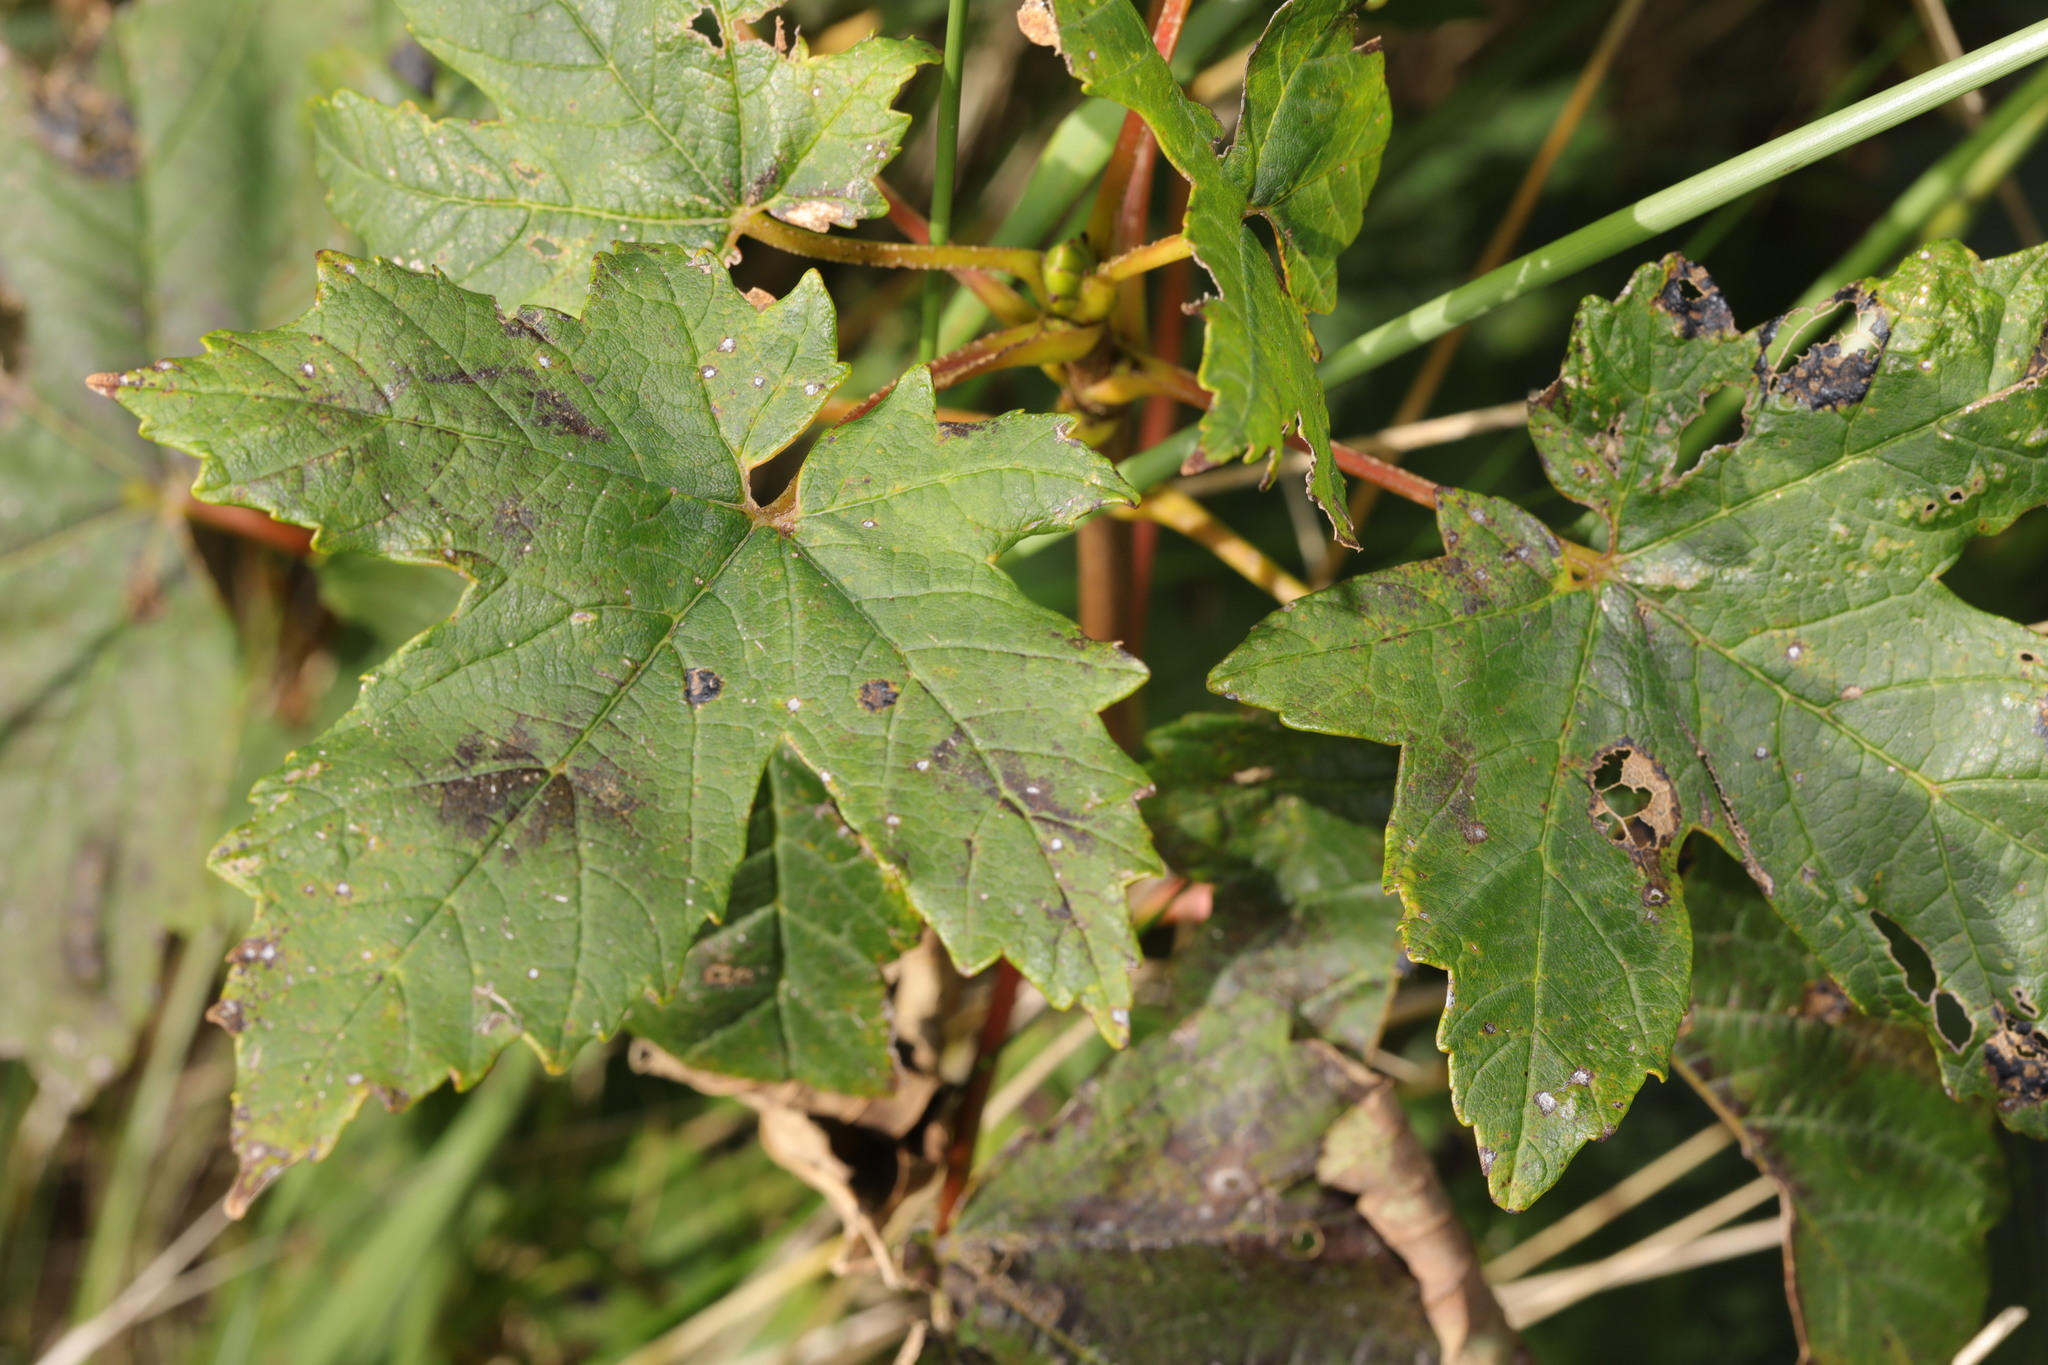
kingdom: Plantae
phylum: Tracheophyta
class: Magnoliopsida
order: Sapindales
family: Sapindaceae
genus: Acer
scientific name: Acer pseudoplatanus
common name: Sycamore
